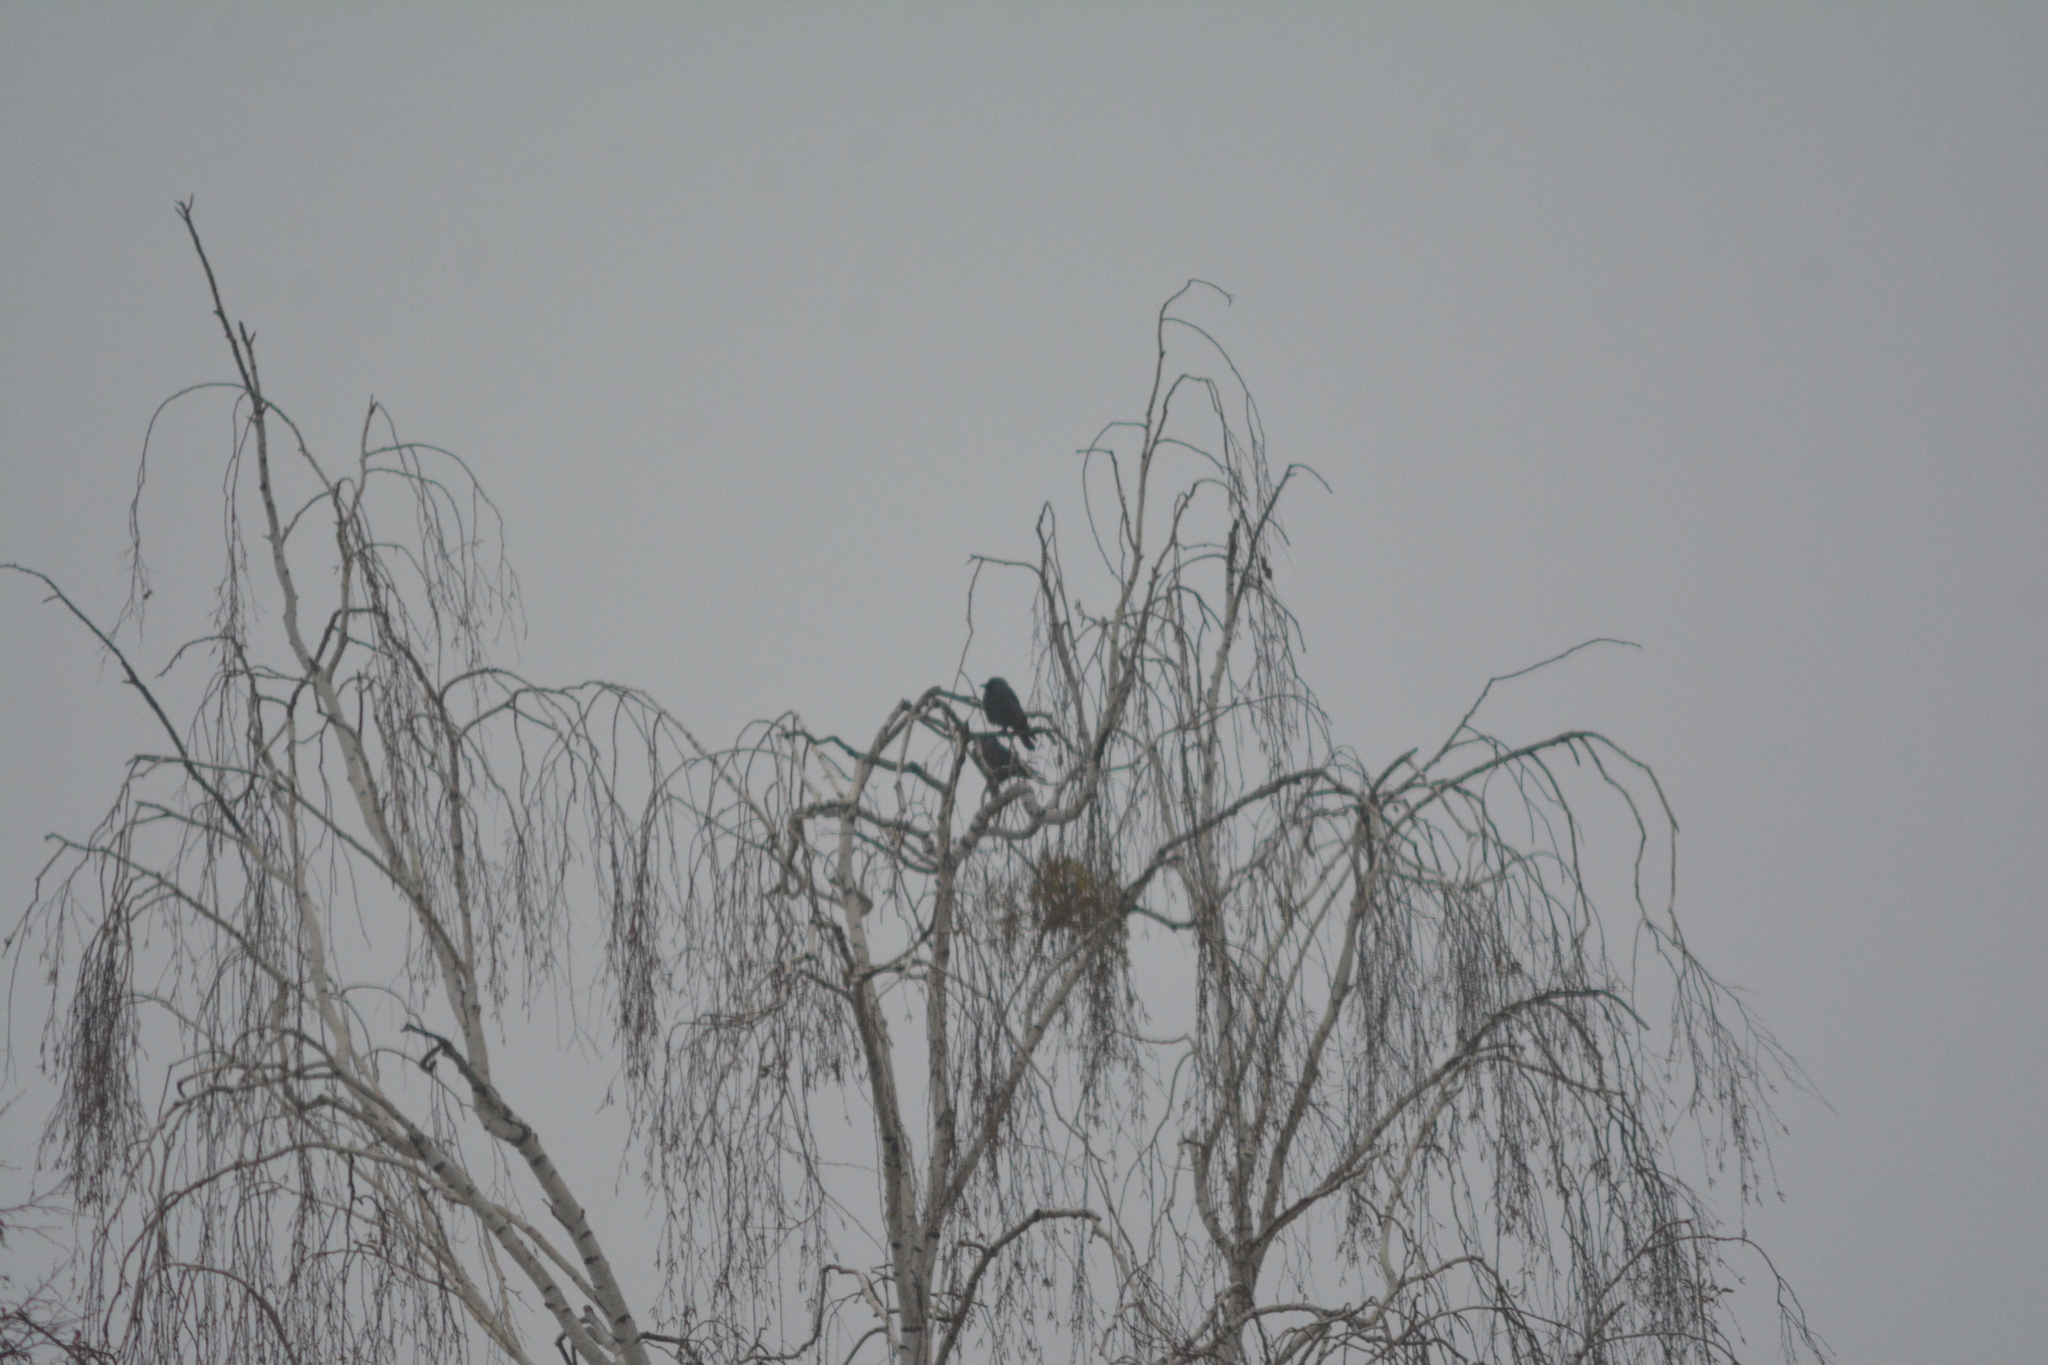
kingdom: Animalia
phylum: Chordata
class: Aves
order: Passeriformes
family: Corvidae
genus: Coloeus
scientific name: Coloeus monedula
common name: Western jackdaw
